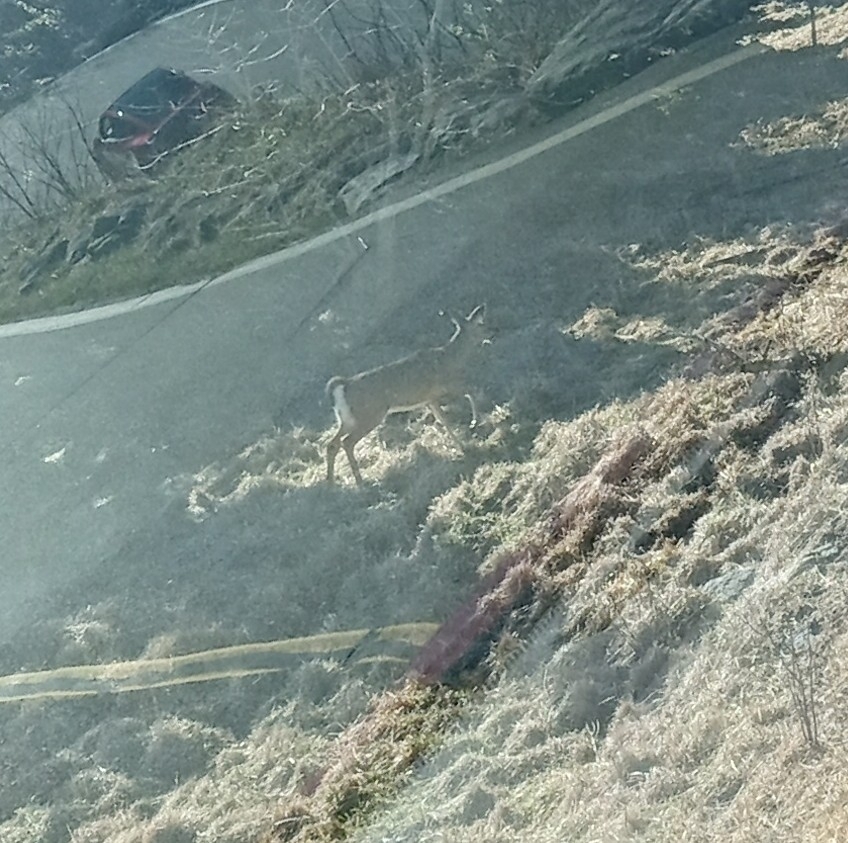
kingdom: Animalia
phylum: Chordata
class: Mammalia
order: Artiodactyla
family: Cervidae
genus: Odocoileus
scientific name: Odocoileus virginianus
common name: White-tailed deer
